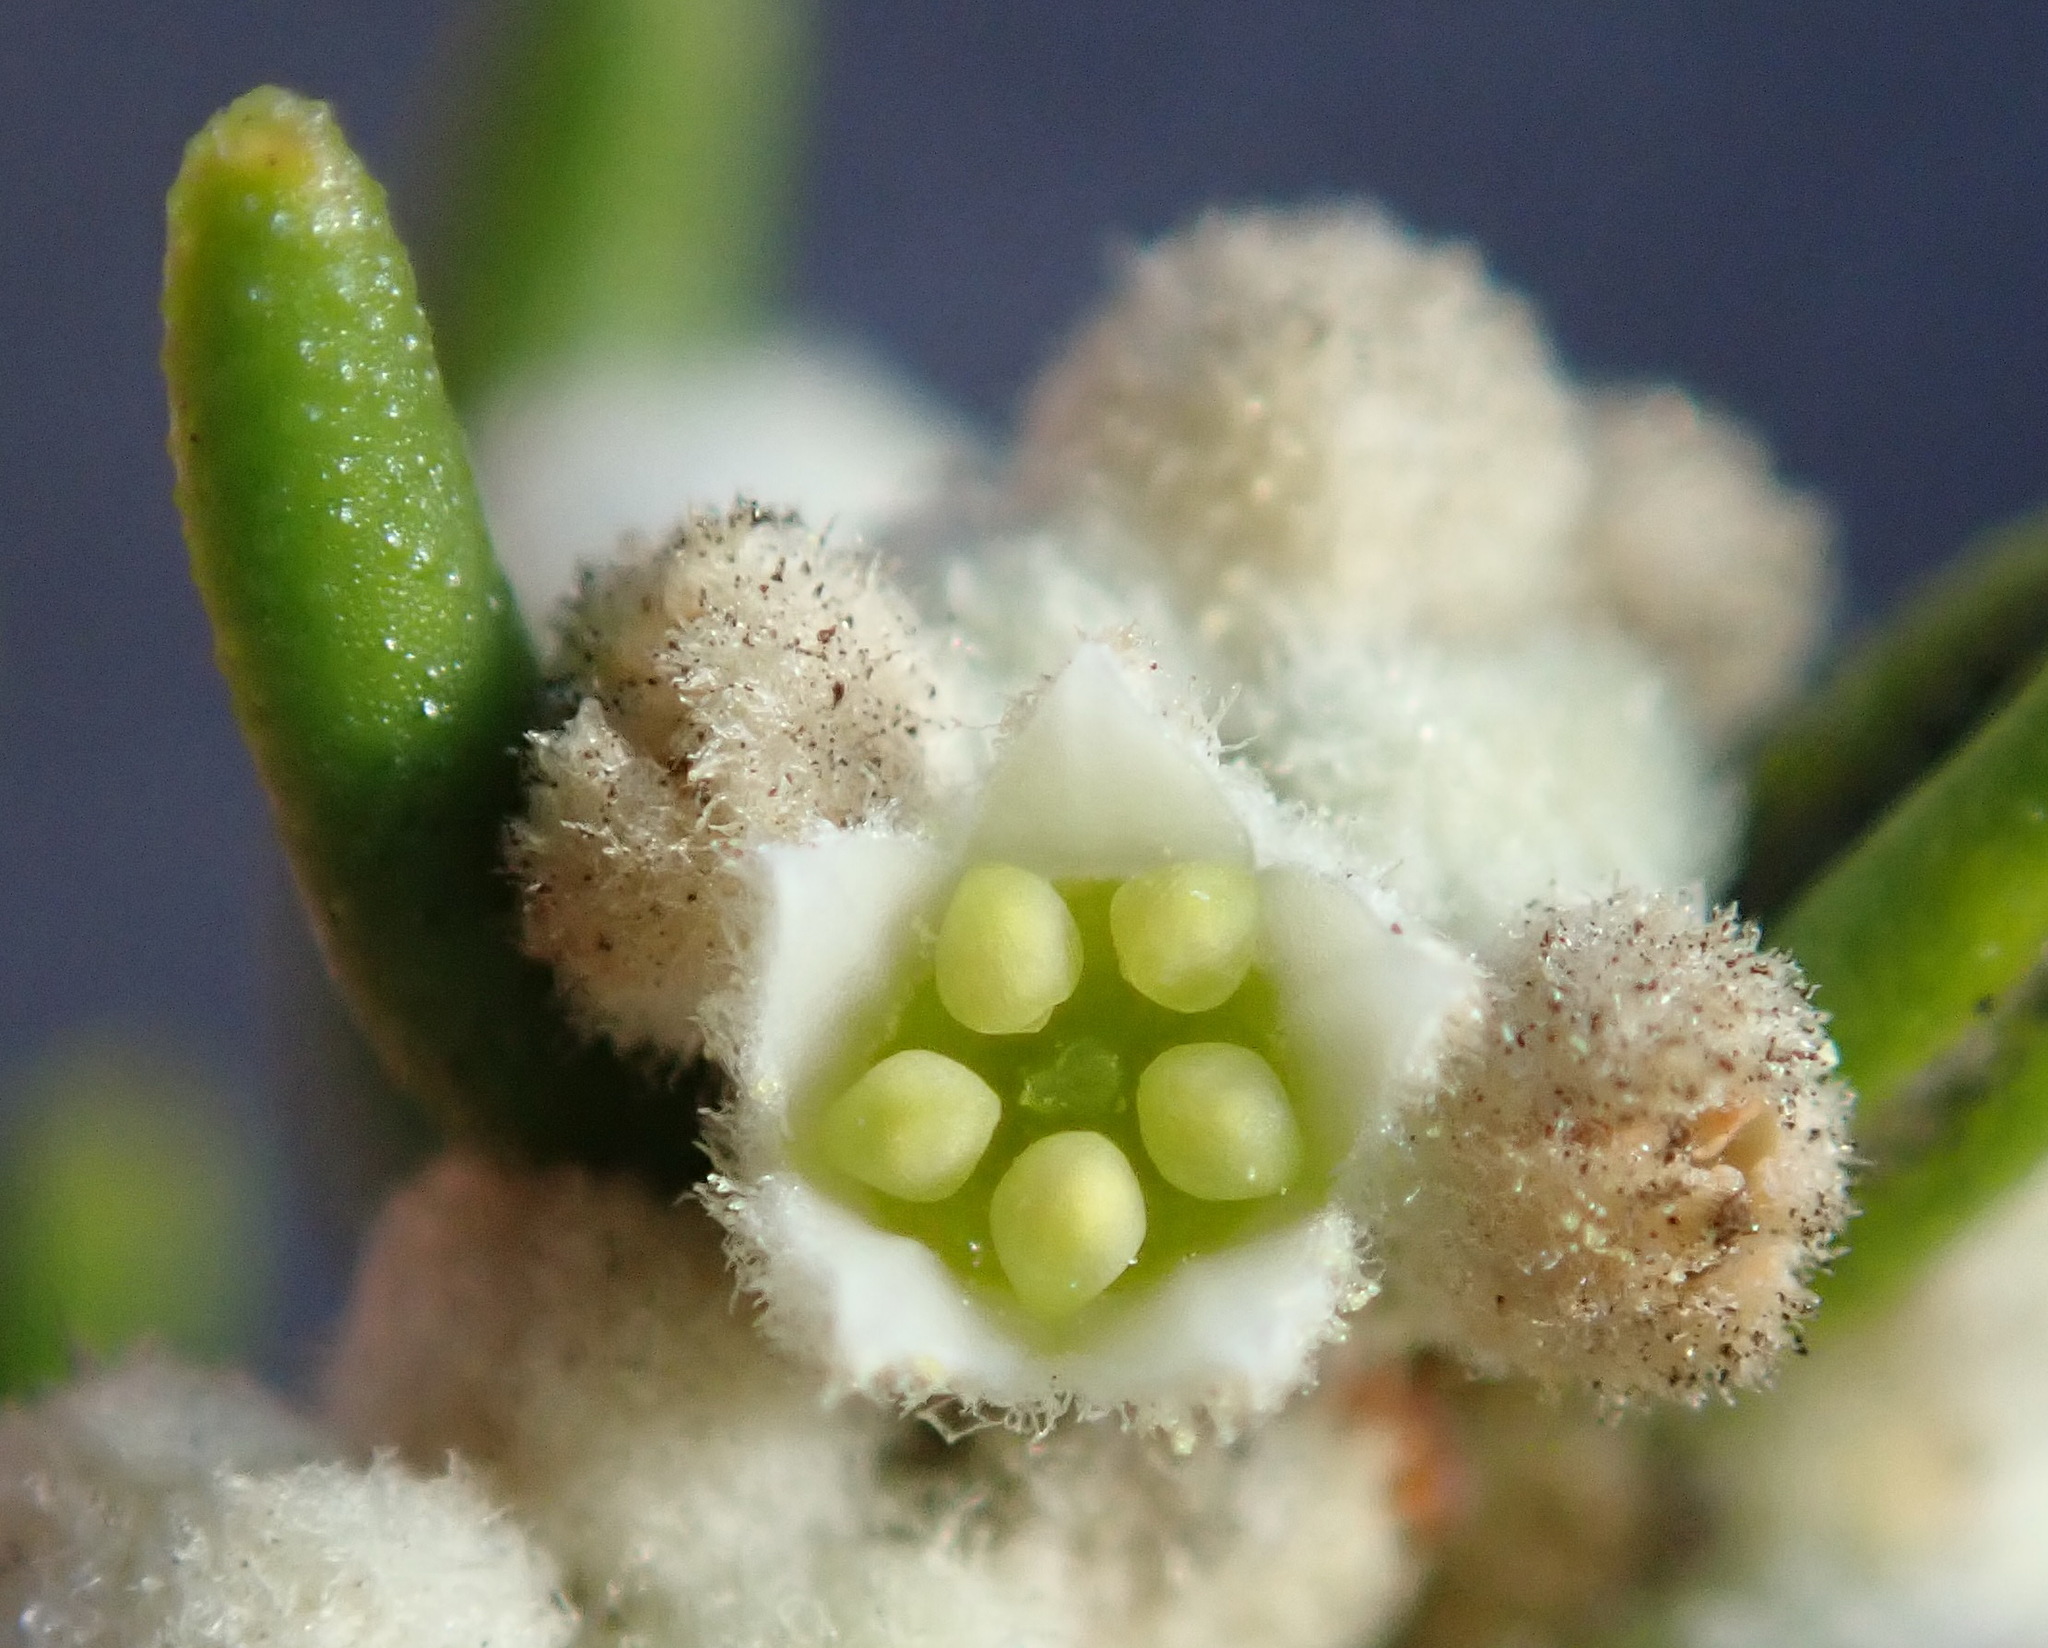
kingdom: Plantae
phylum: Tracheophyta
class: Magnoliopsida
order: Rosales
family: Rhamnaceae
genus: Phylica
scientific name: Phylica lasiocarpa
